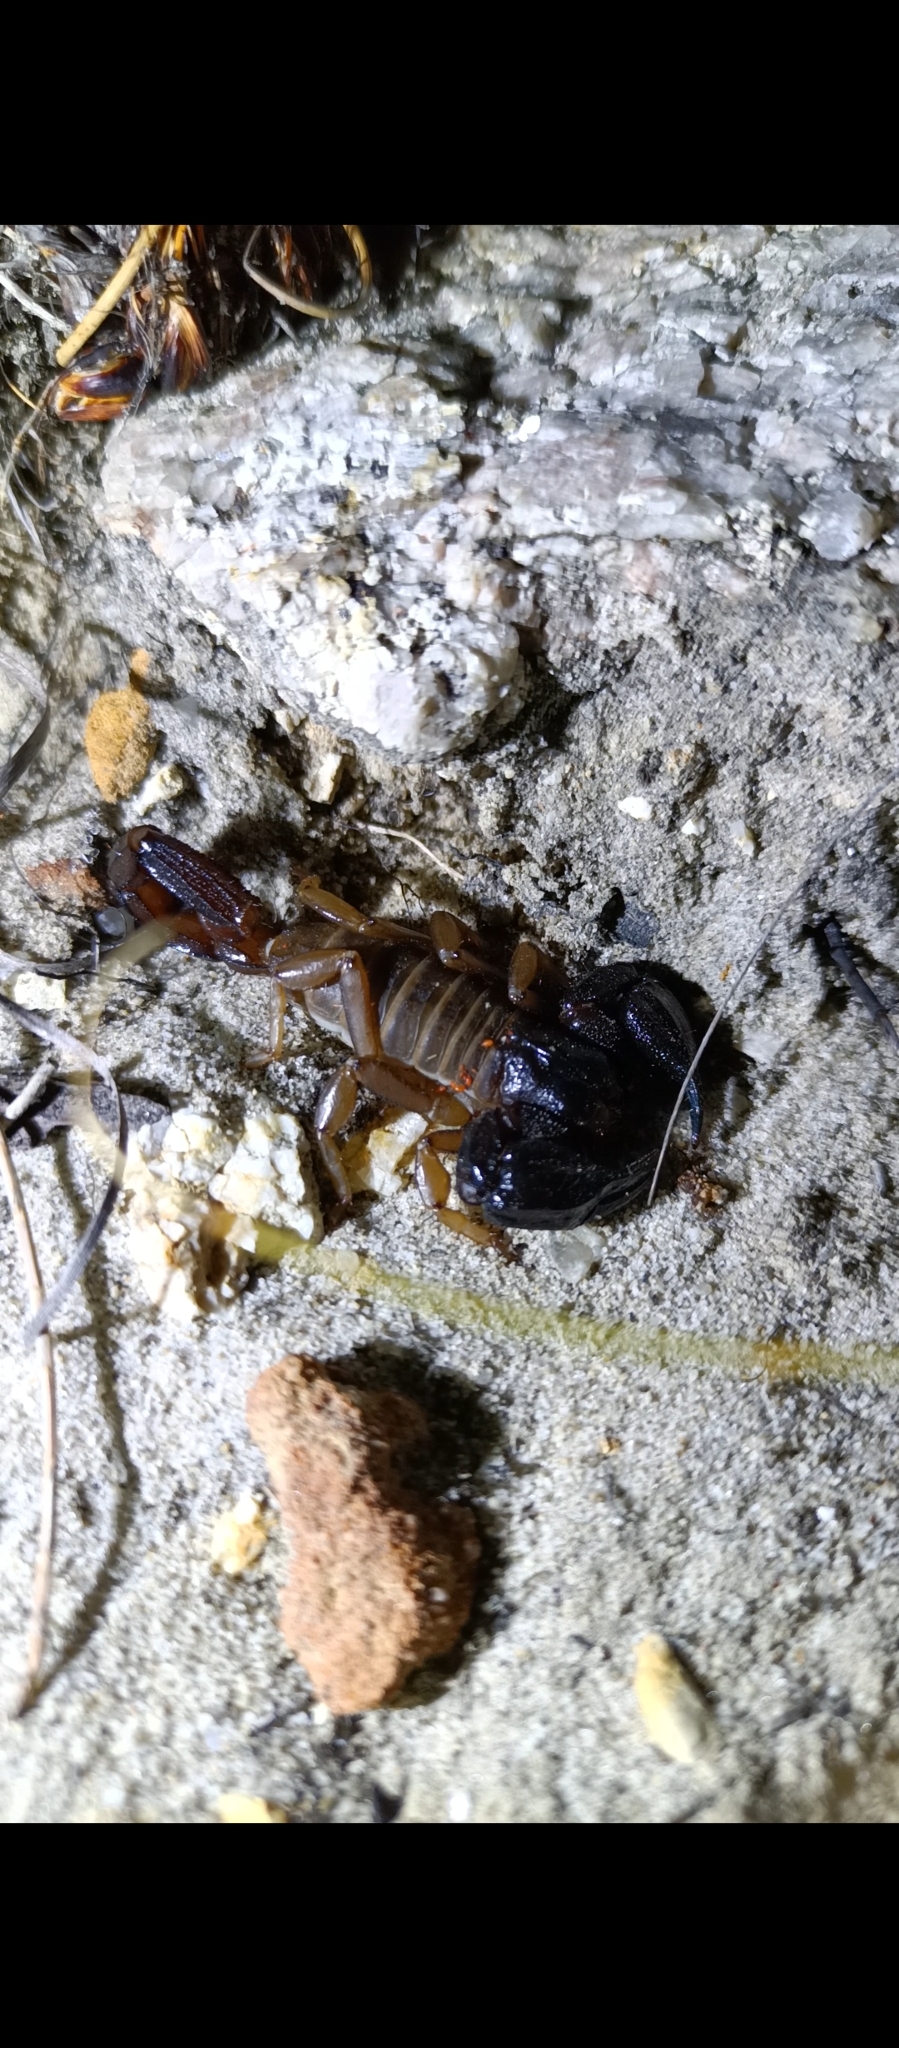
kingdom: Animalia
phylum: Arthropoda
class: Arachnida
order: Scorpiones
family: Scorpionidae
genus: Urodacus
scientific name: Urodacus novaehollandiae
